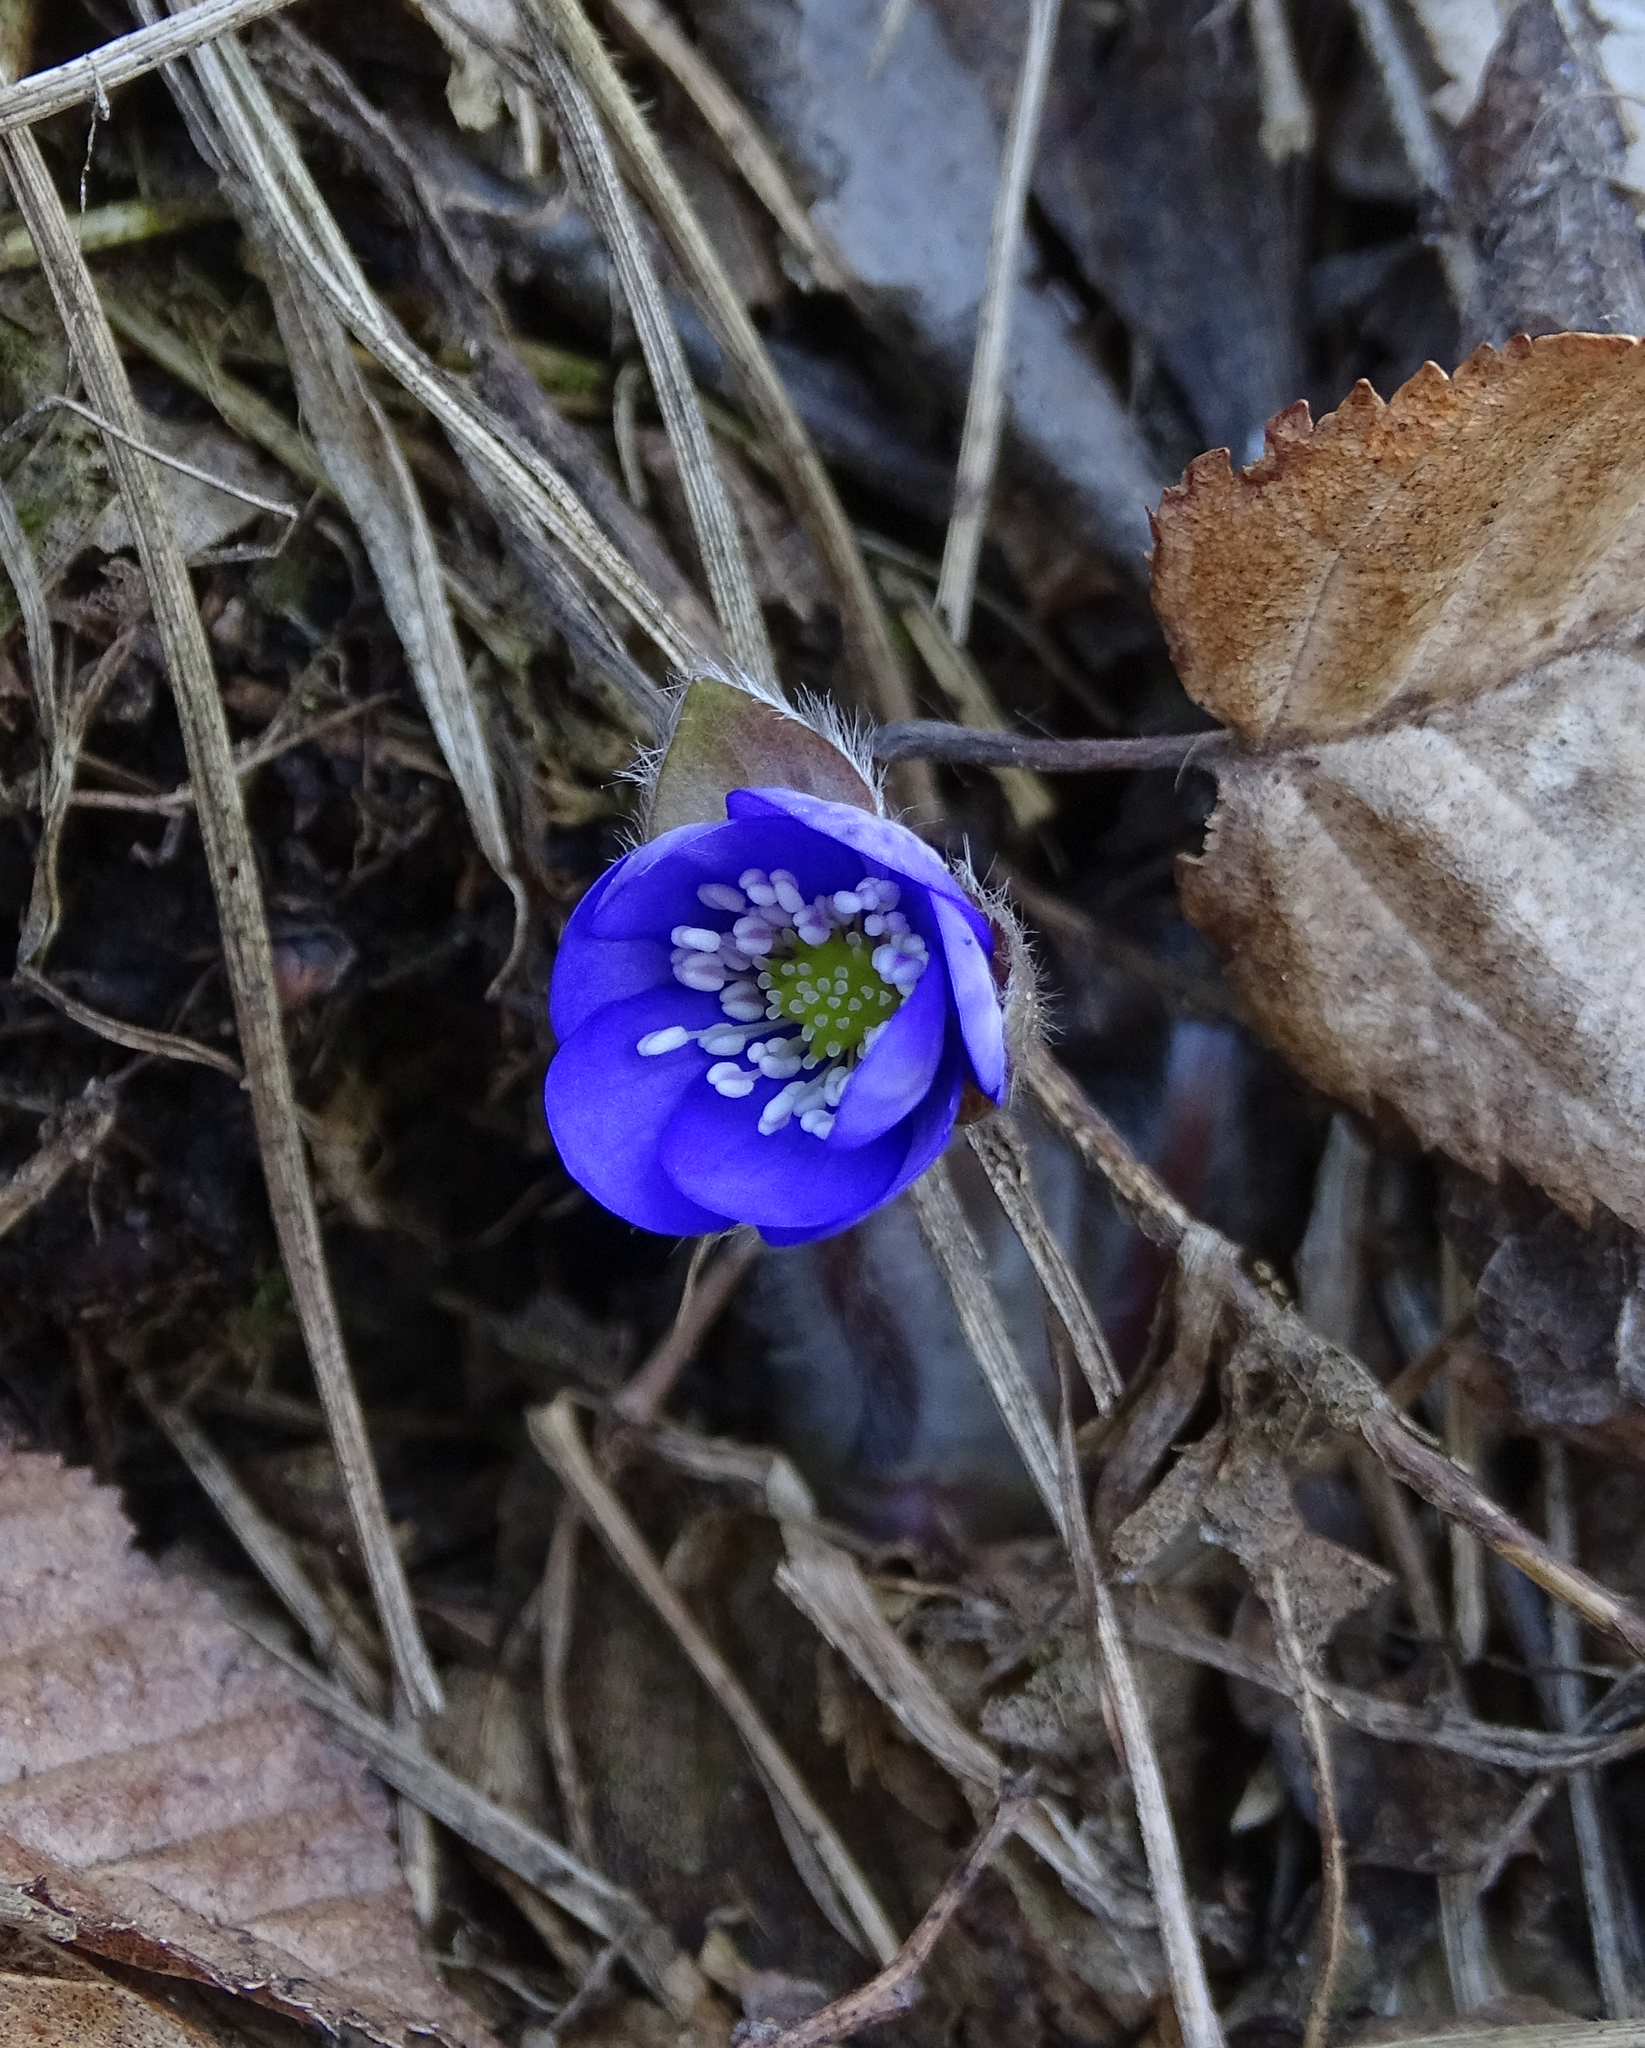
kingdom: Plantae
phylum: Tracheophyta
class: Magnoliopsida
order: Ranunculales
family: Ranunculaceae
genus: Hepatica
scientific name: Hepatica nobilis
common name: Liverleaf
